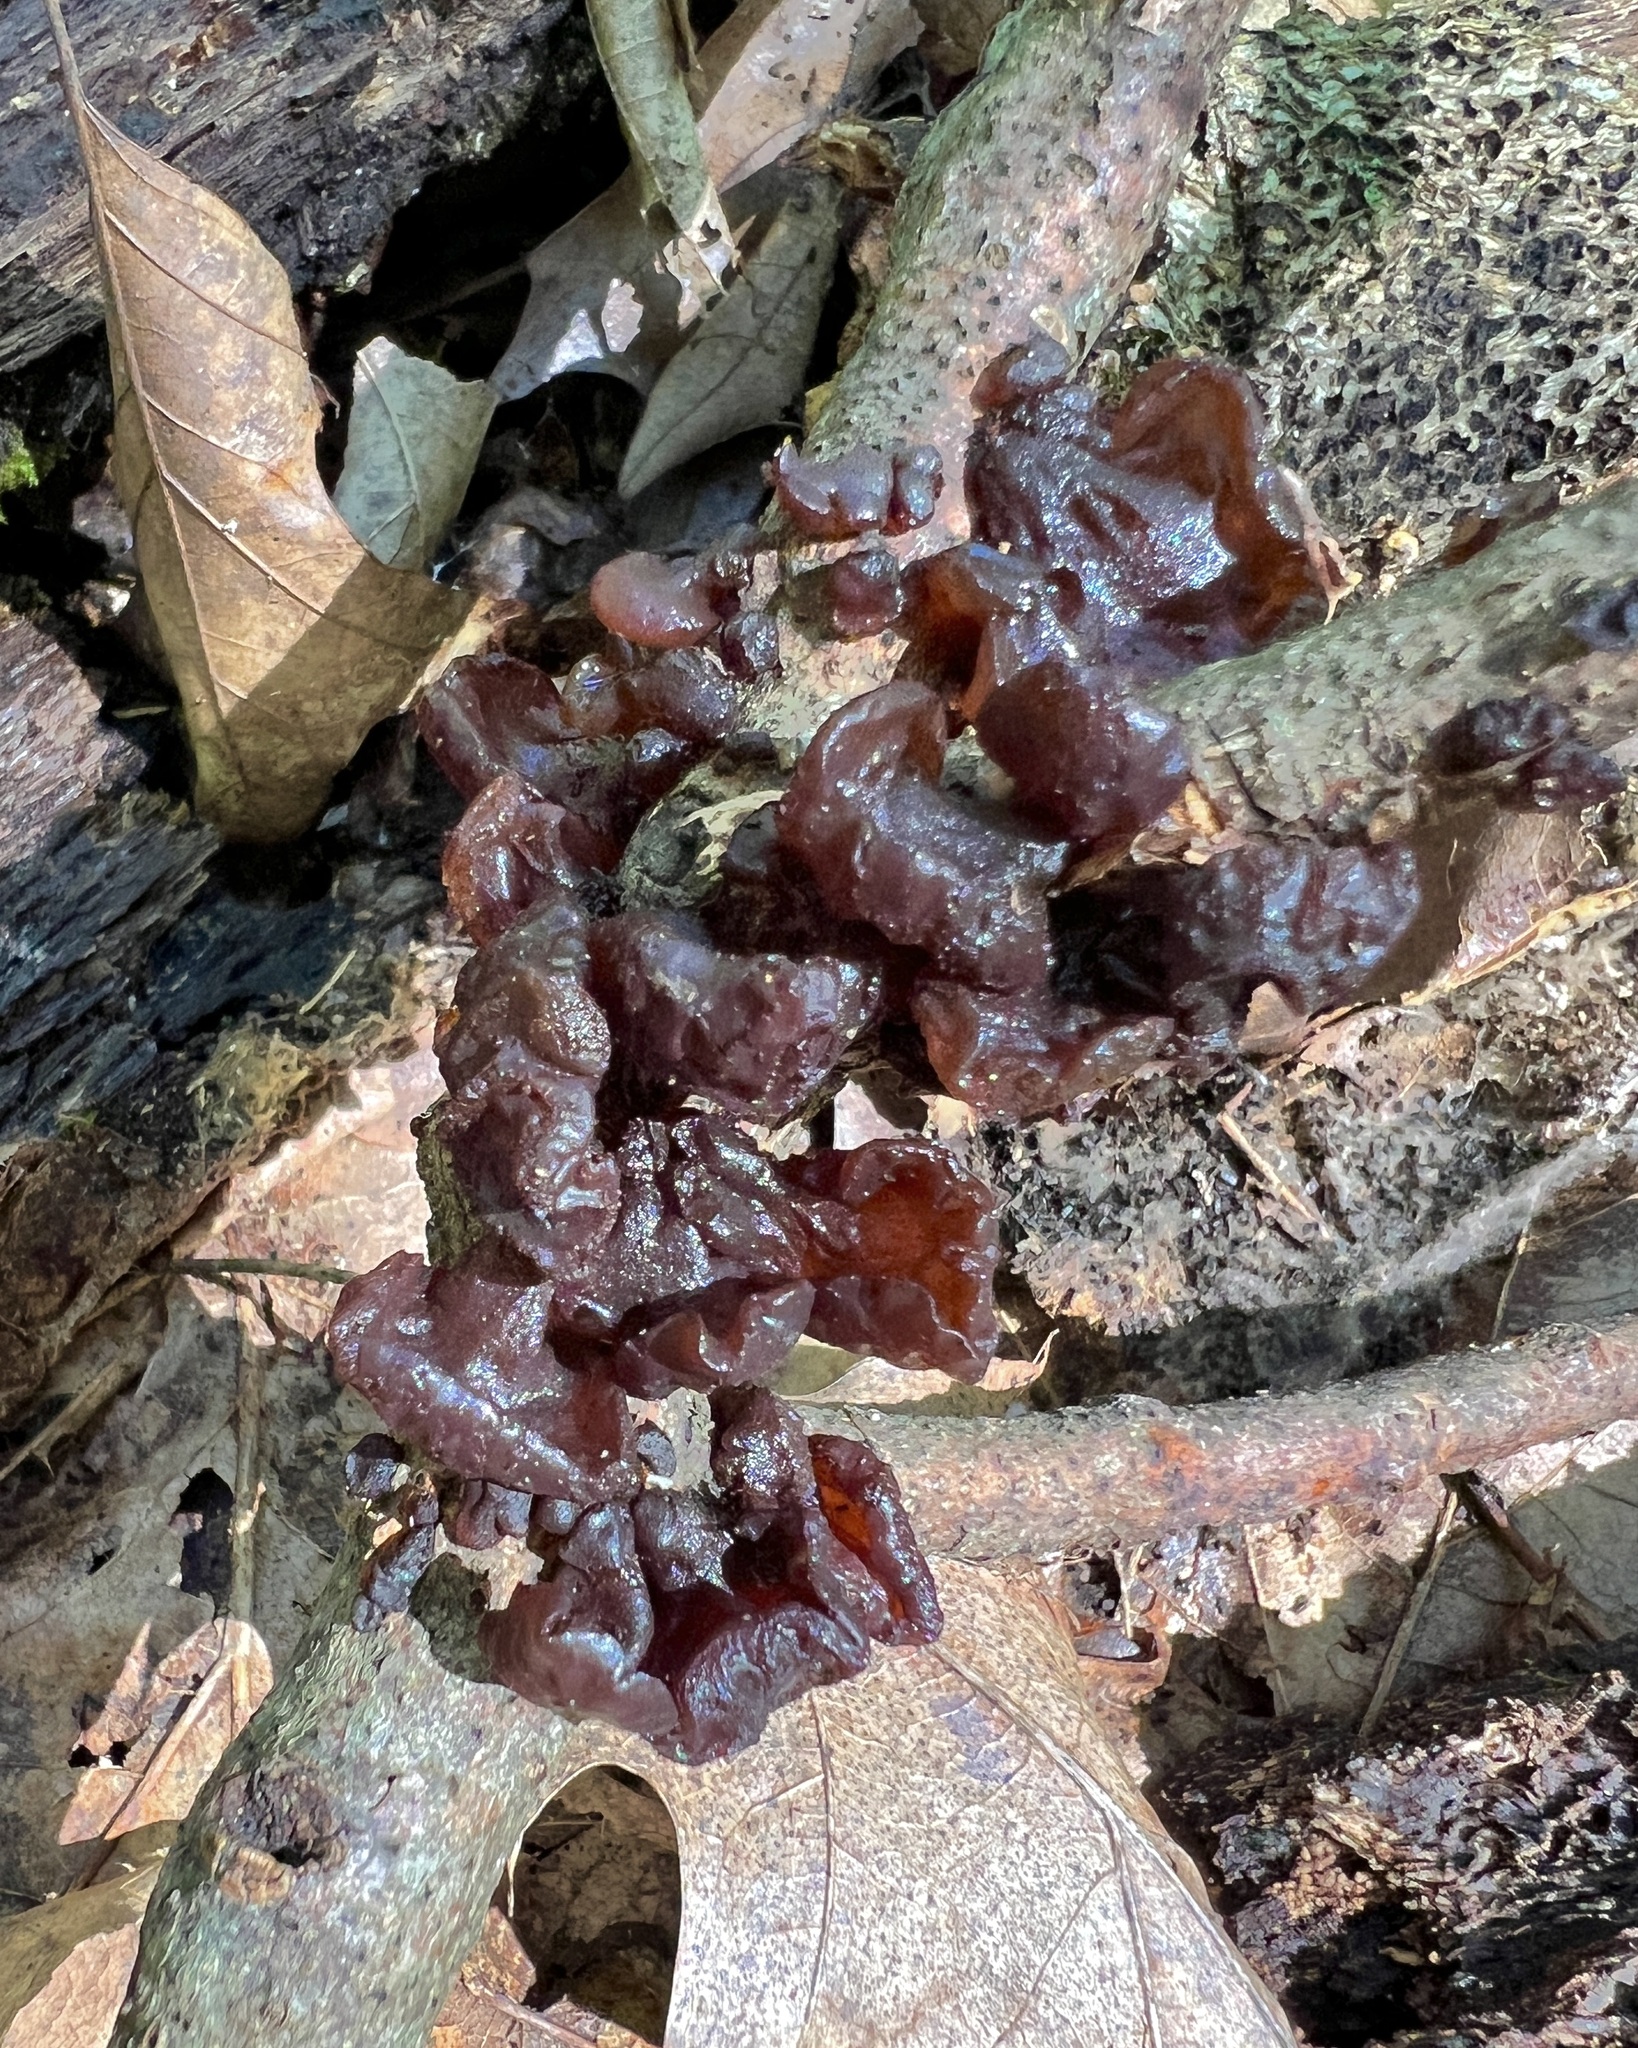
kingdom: Fungi
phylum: Basidiomycota
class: Agaricomycetes
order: Auriculariales
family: Auriculariaceae
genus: Exidia
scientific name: Exidia
